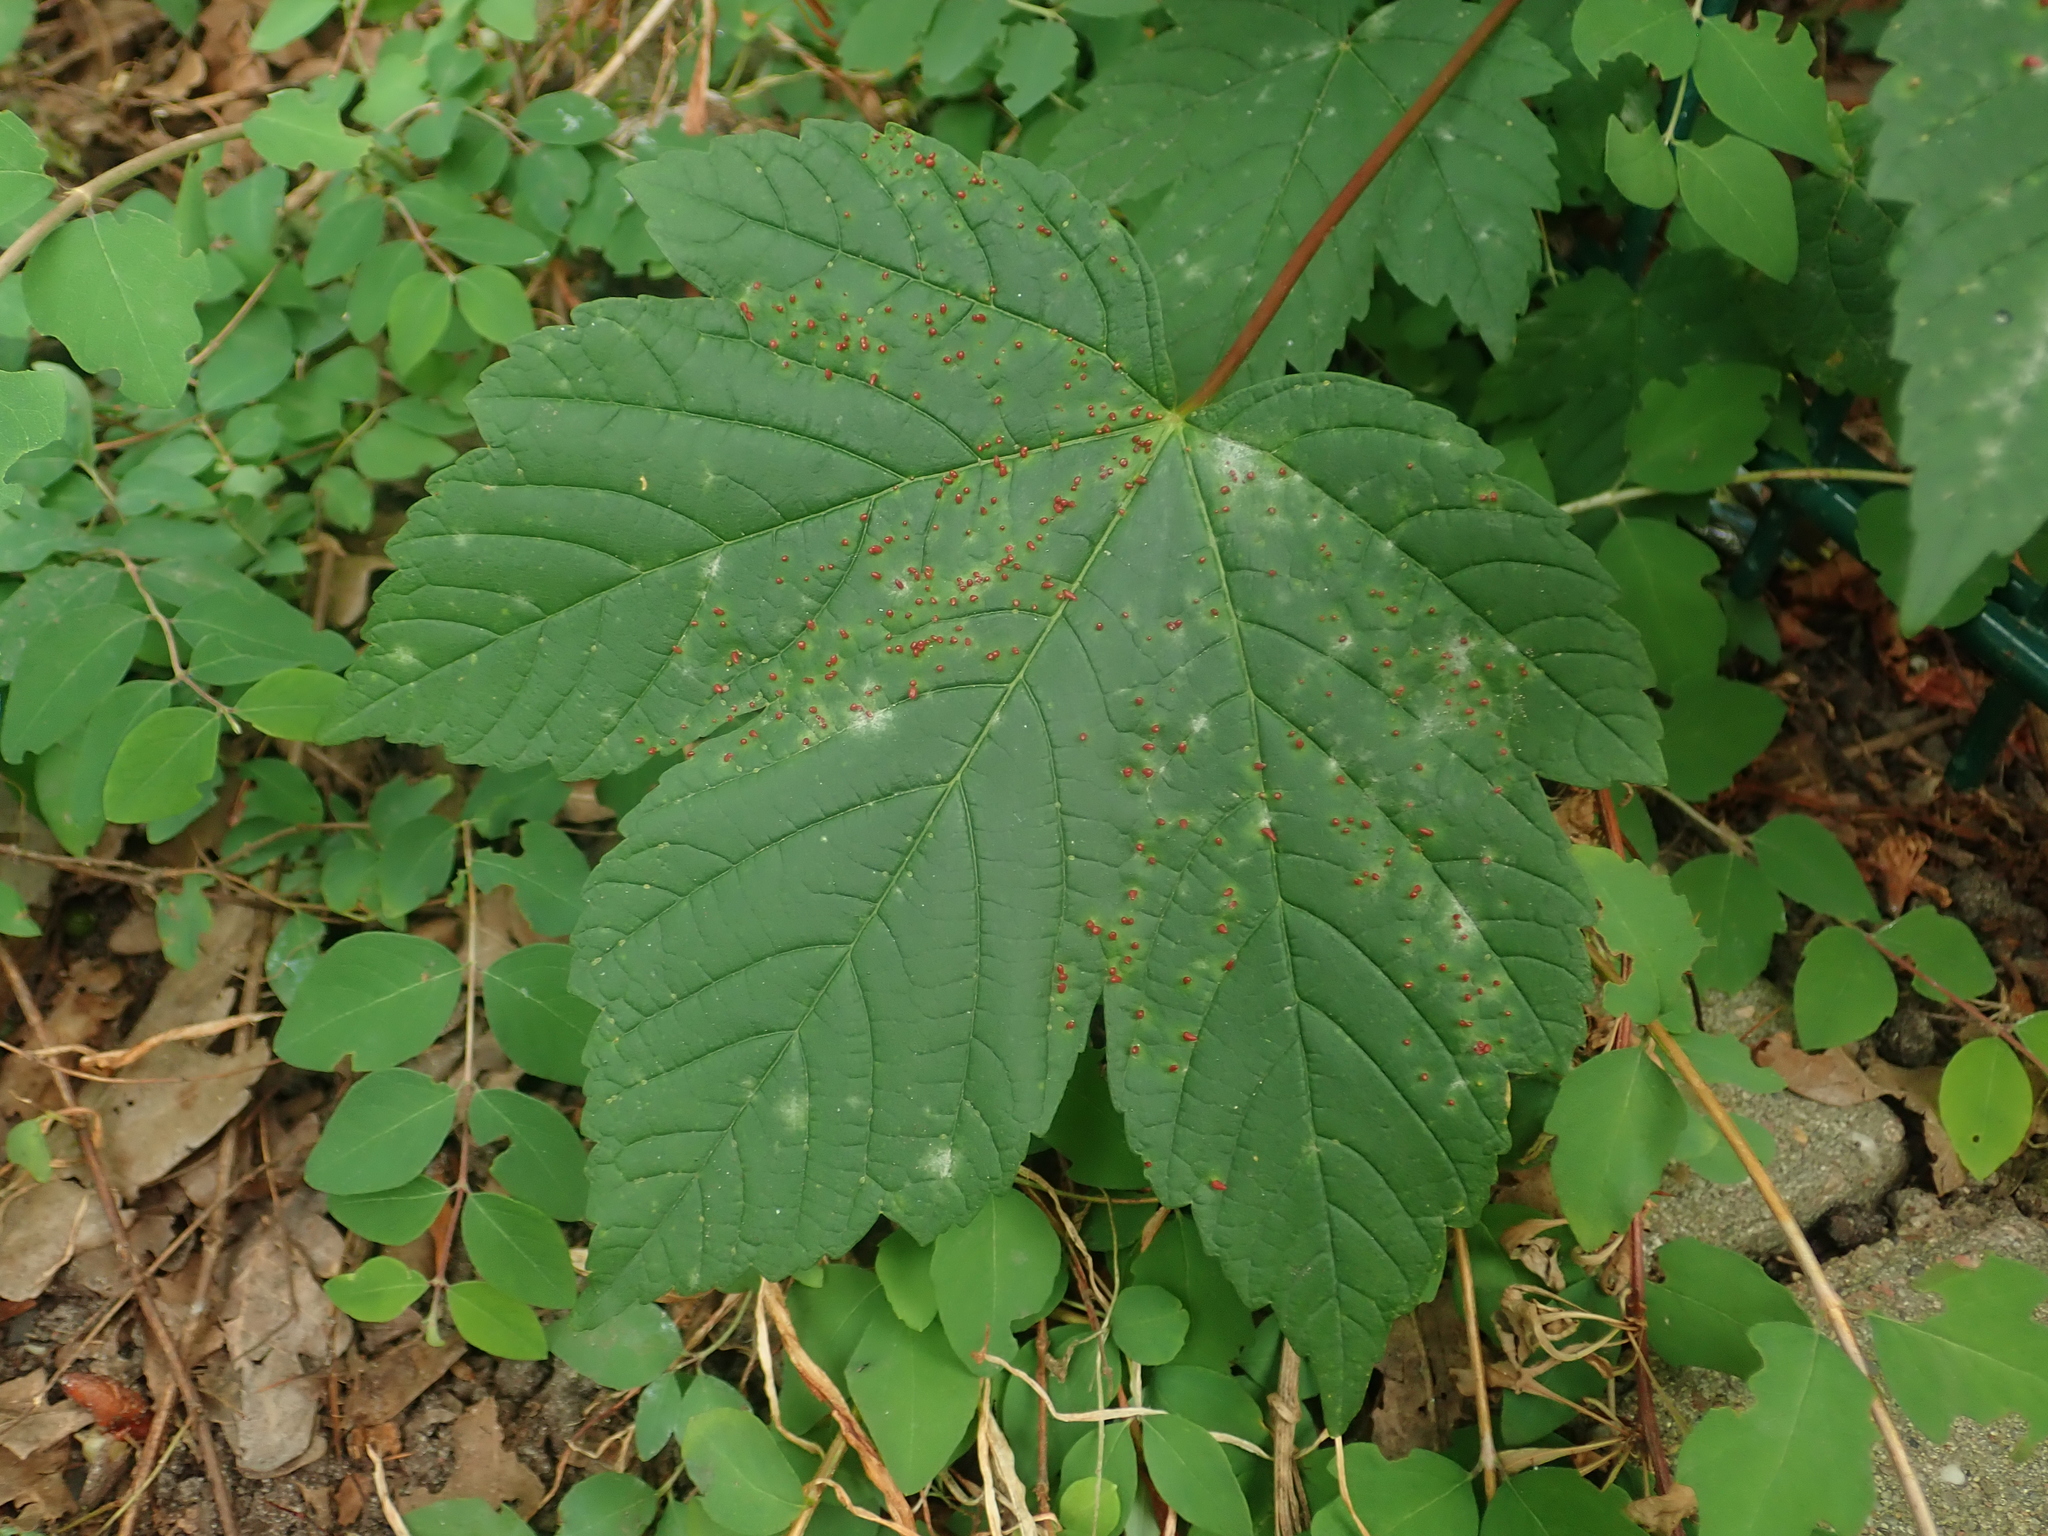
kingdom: Plantae
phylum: Tracheophyta
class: Magnoliopsida
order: Sapindales
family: Sapindaceae
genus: Acer
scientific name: Acer pseudoplatanus
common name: Sycamore
